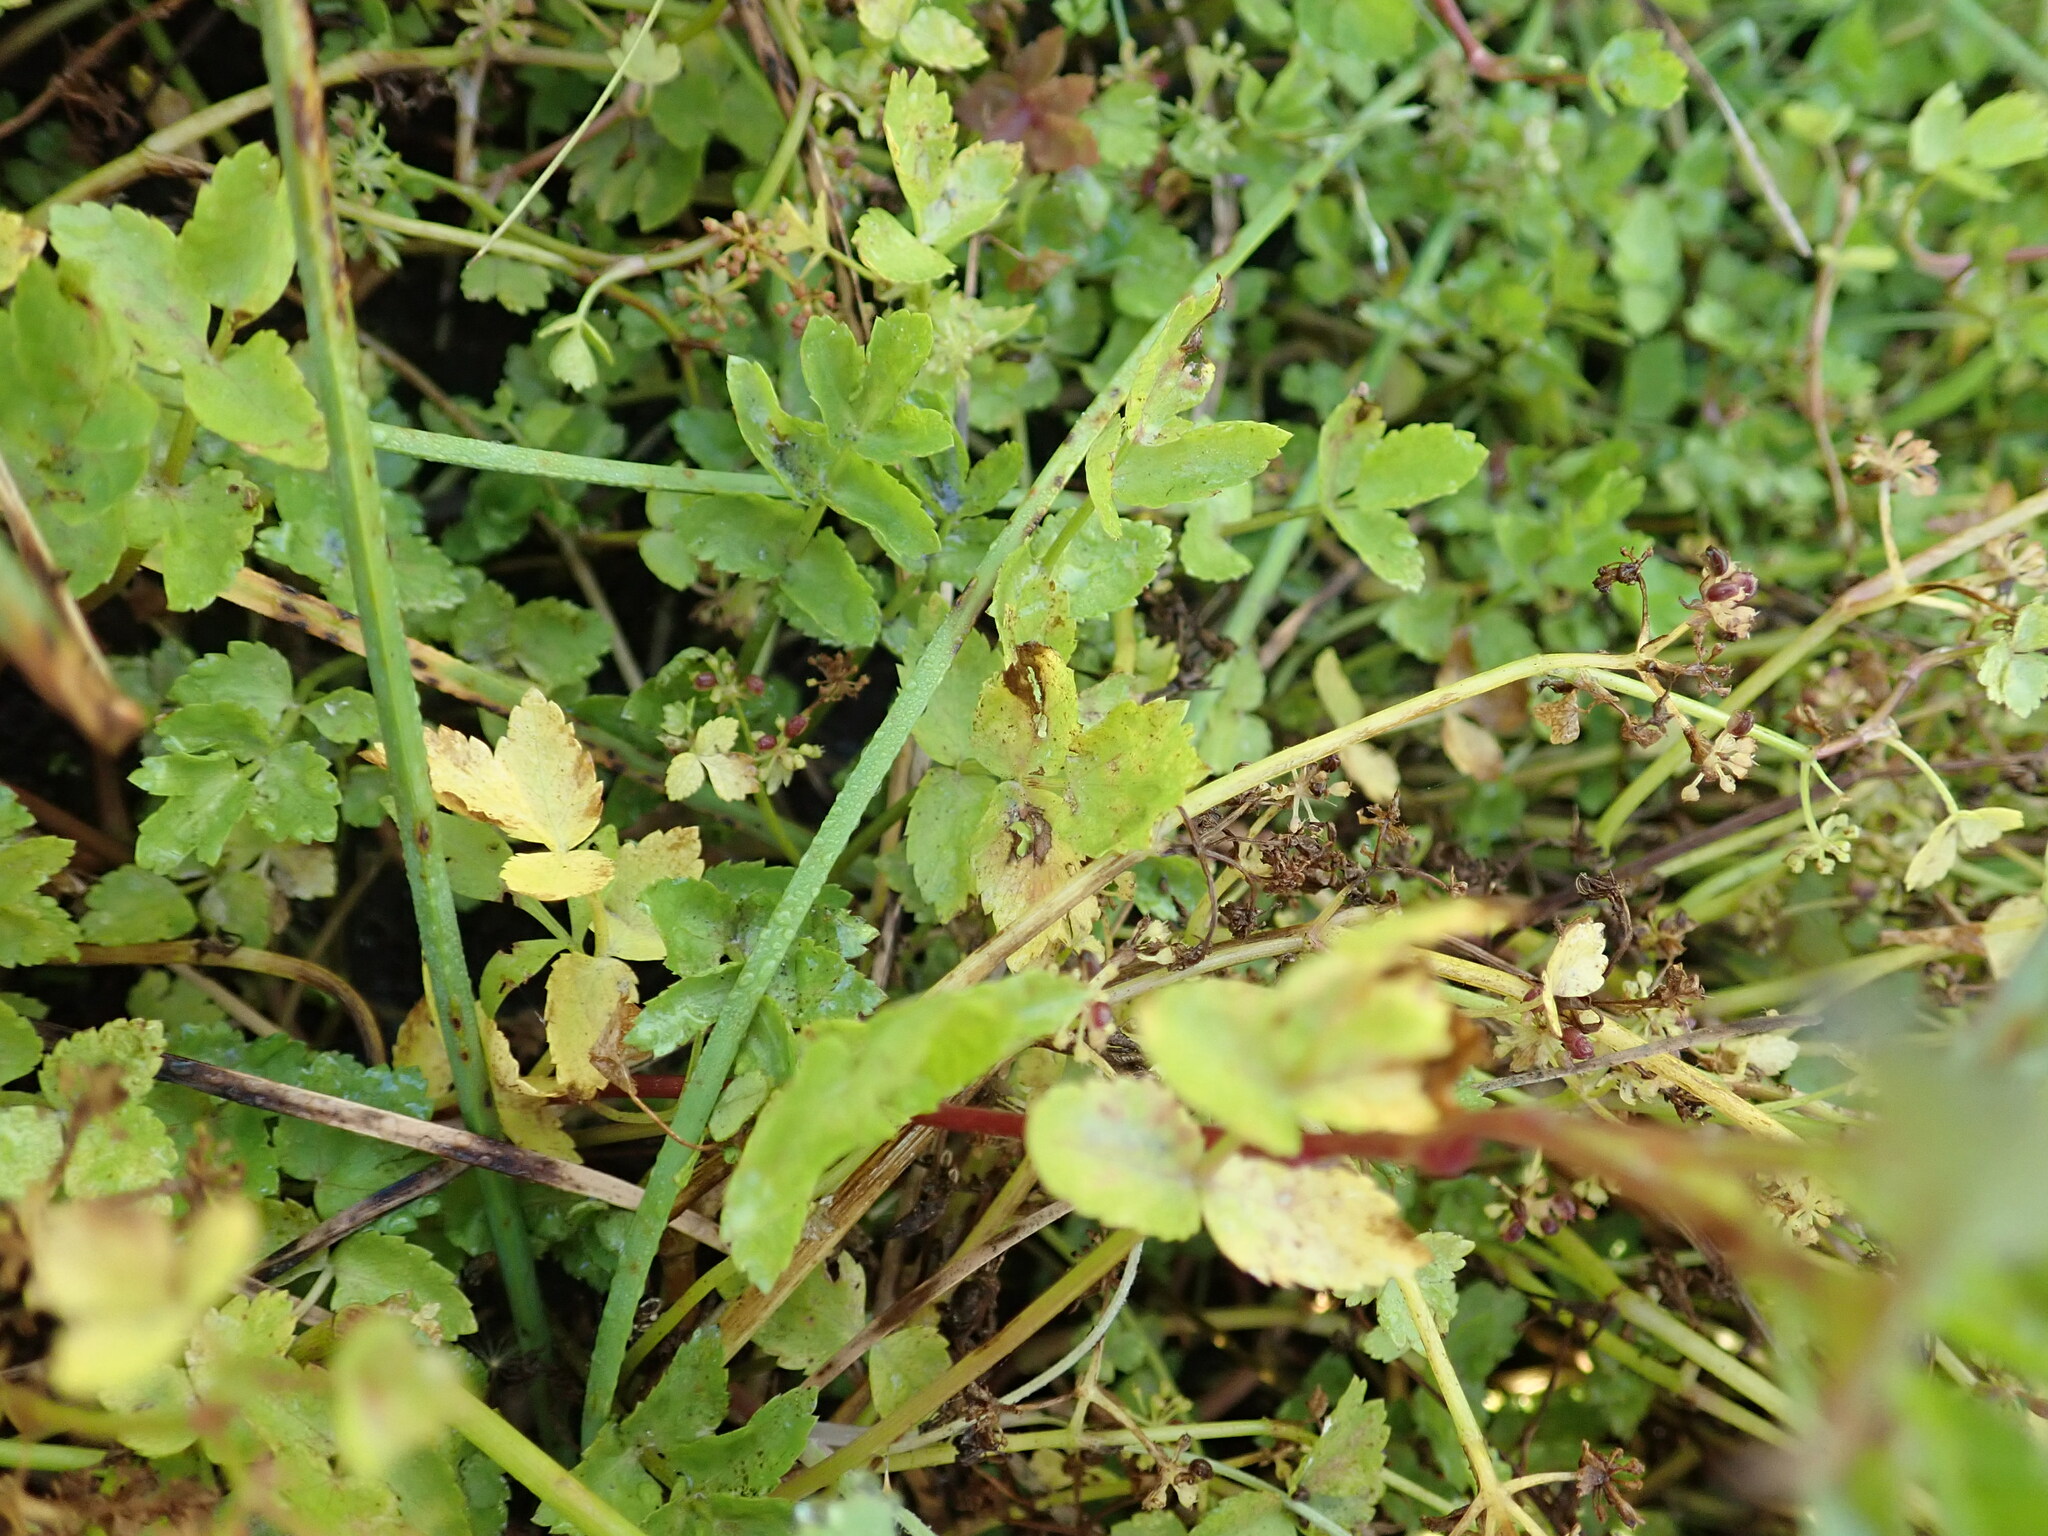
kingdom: Plantae
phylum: Tracheophyta
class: Magnoliopsida
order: Apiales
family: Apiaceae
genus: Helosciadium
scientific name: Helosciadium nodiflorum
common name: Fool's-watercress
